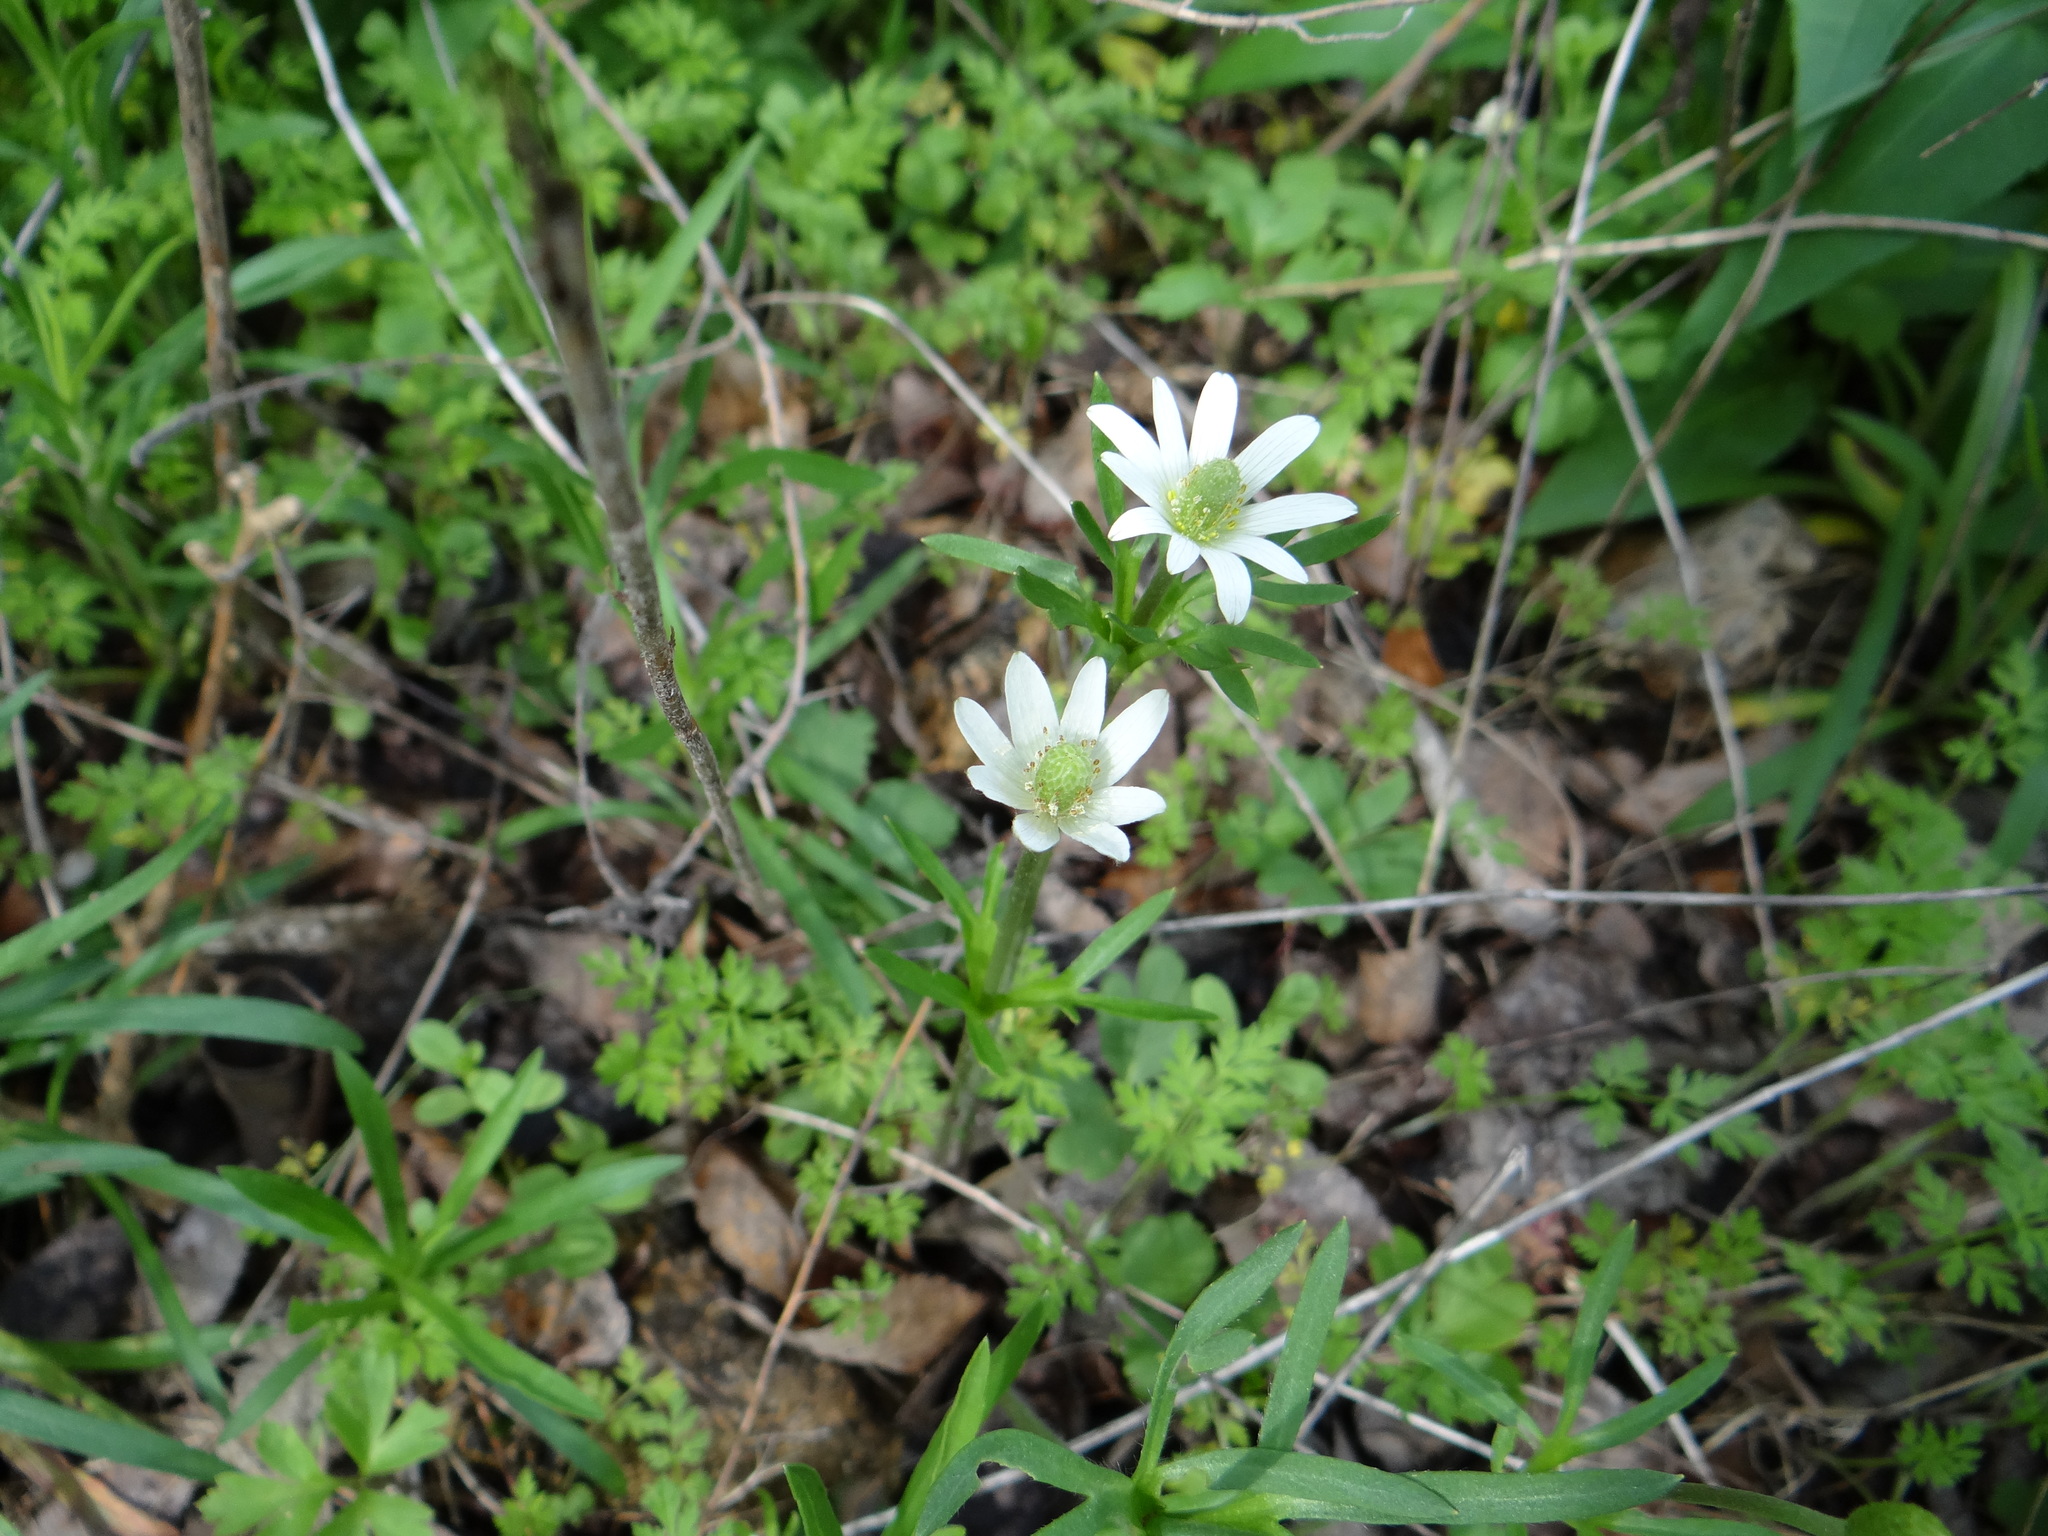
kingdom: Plantae
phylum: Tracheophyta
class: Magnoliopsida
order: Ranunculales
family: Ranunculaceae
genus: Anemone
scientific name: Anemone berlandieri
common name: Ten-petal anemone
